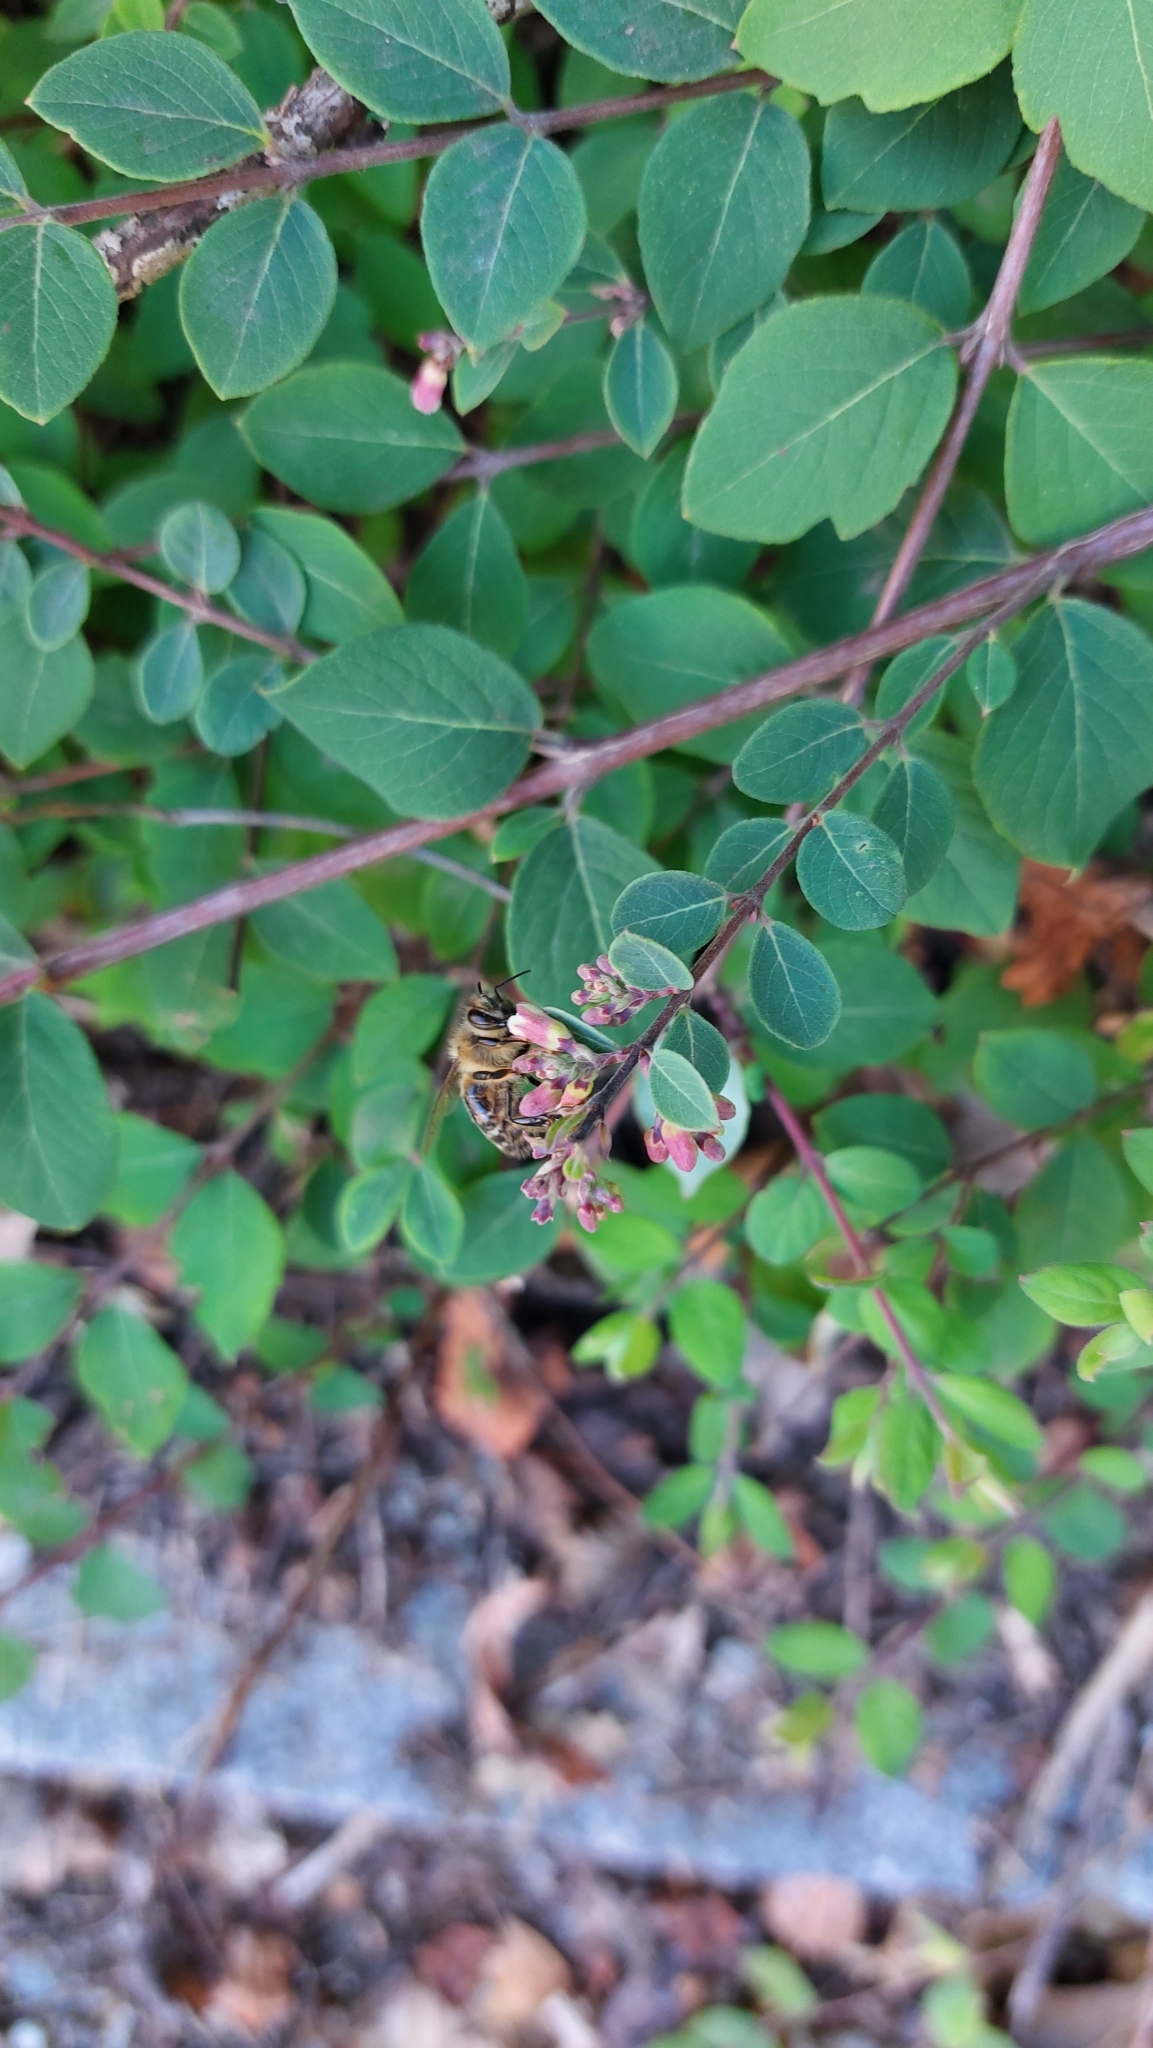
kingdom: Animalia
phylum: Arthropoda
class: Insecta
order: Hymenoptera
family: Apidae
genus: Apis
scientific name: Apis mellifera
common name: Honey bee
